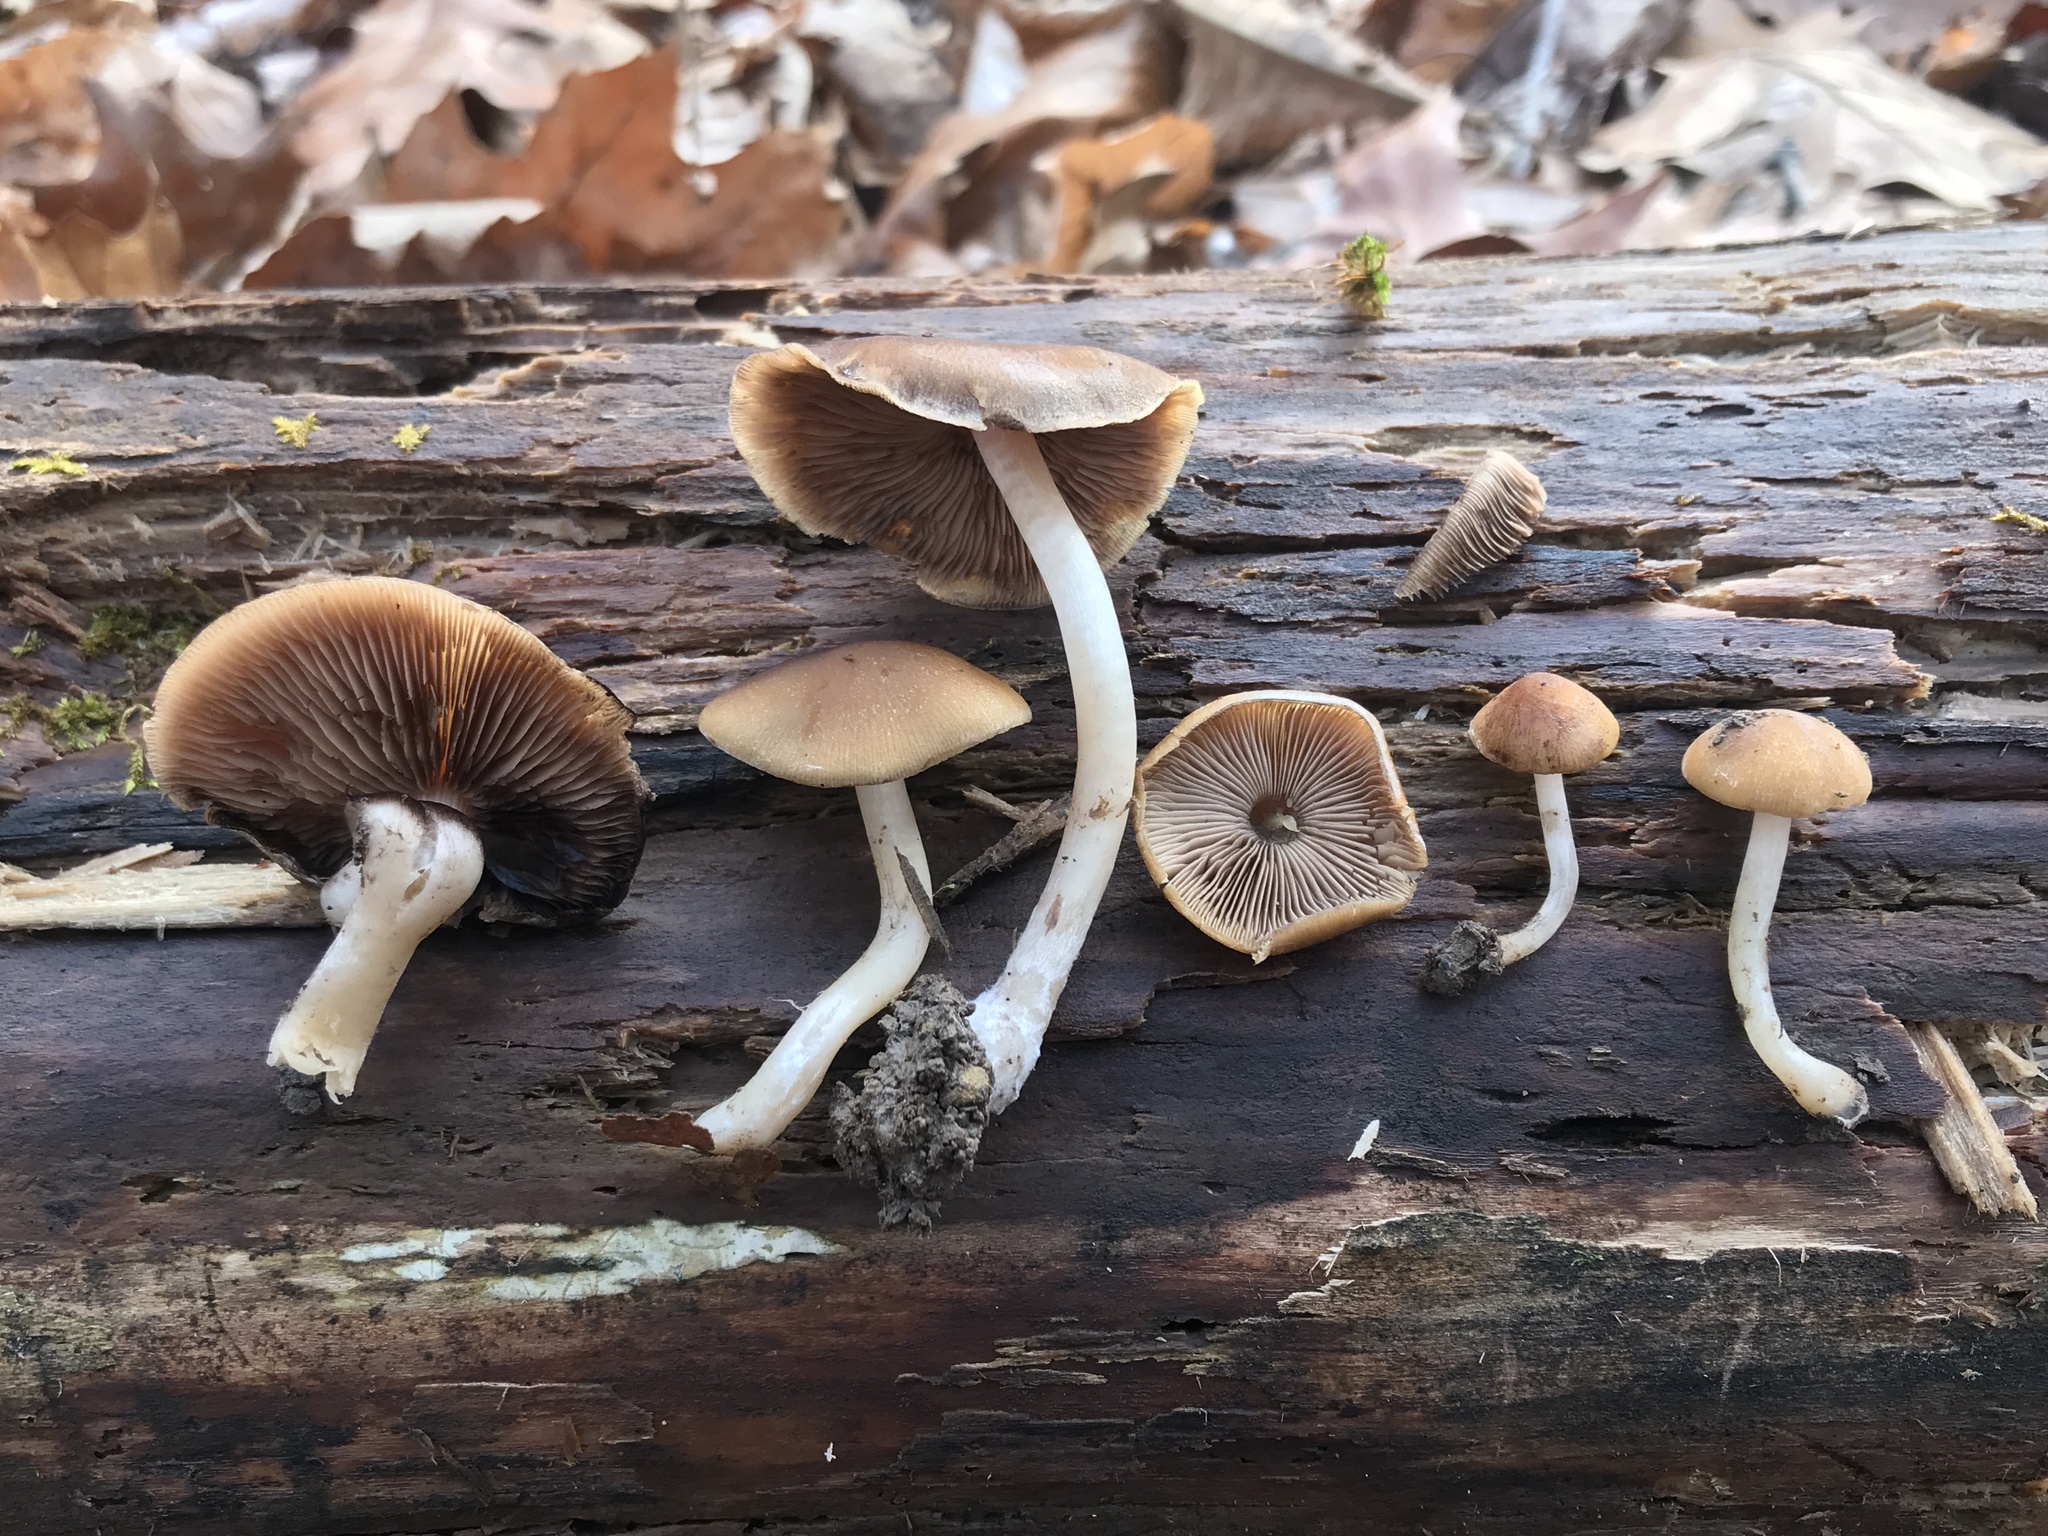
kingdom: Fungi
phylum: Basidiomycota
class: Agaricomycetes
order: Agaricales
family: Psathyrellaceae
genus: Psathyrella
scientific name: Psathyrella piluliformis
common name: Common stump brittlestem
